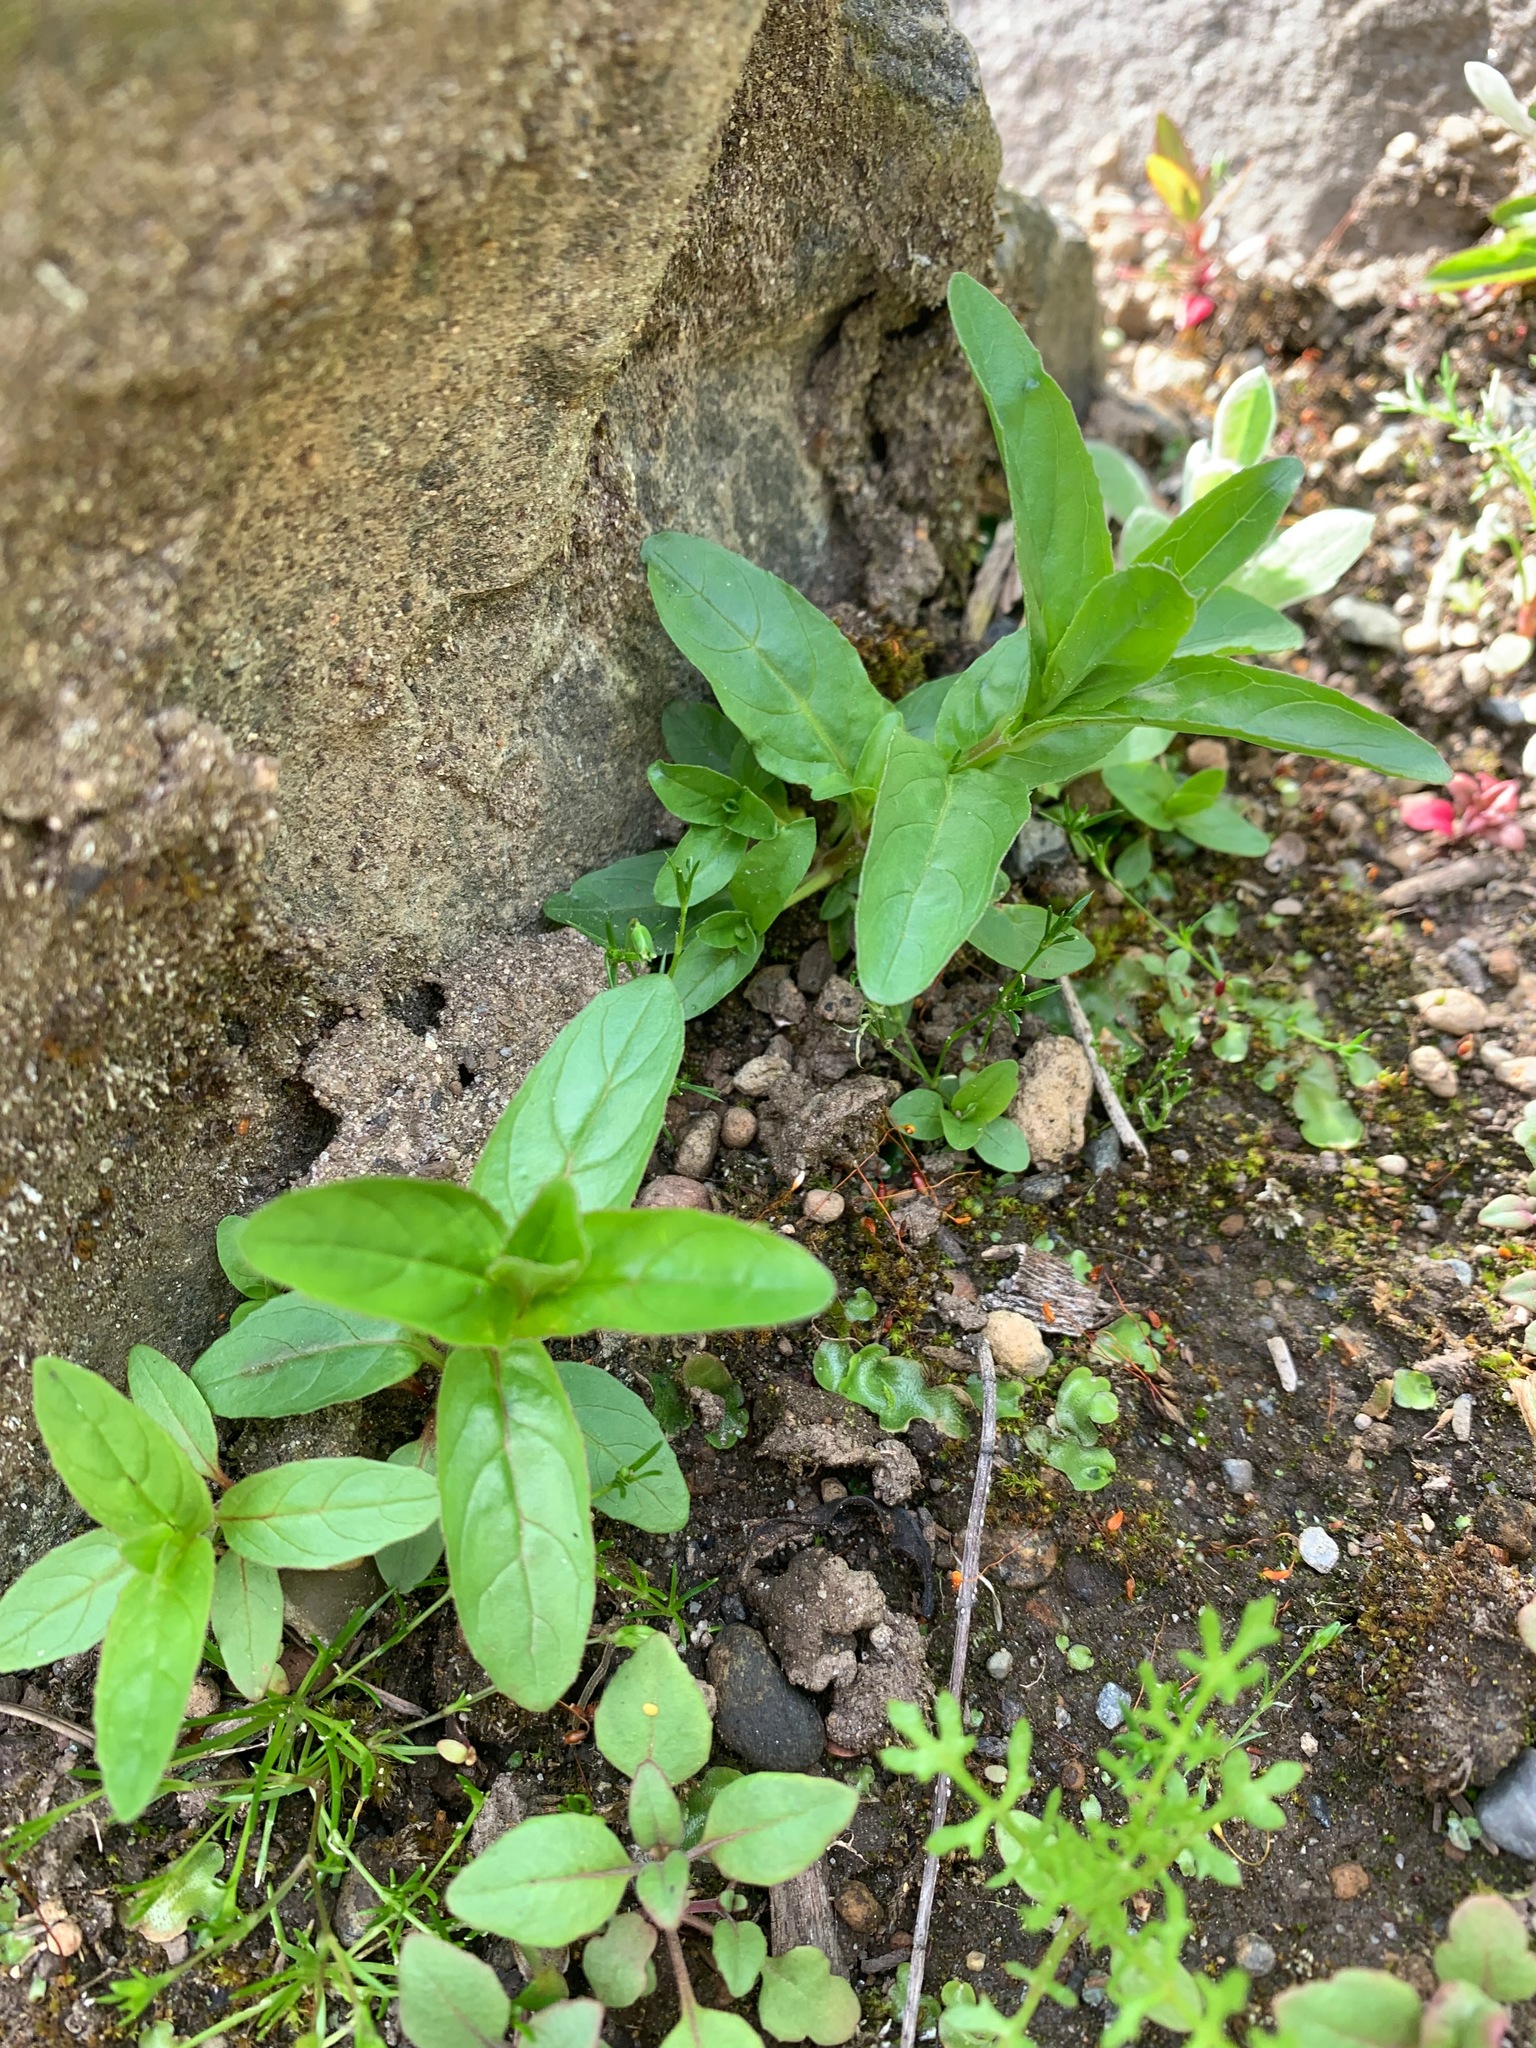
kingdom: Plantae
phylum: Tracheophyta
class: Magnoliopsida
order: Myrtales
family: Onagraceae
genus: Epilobium
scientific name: Epilobium ciliatum
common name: American willowherb
